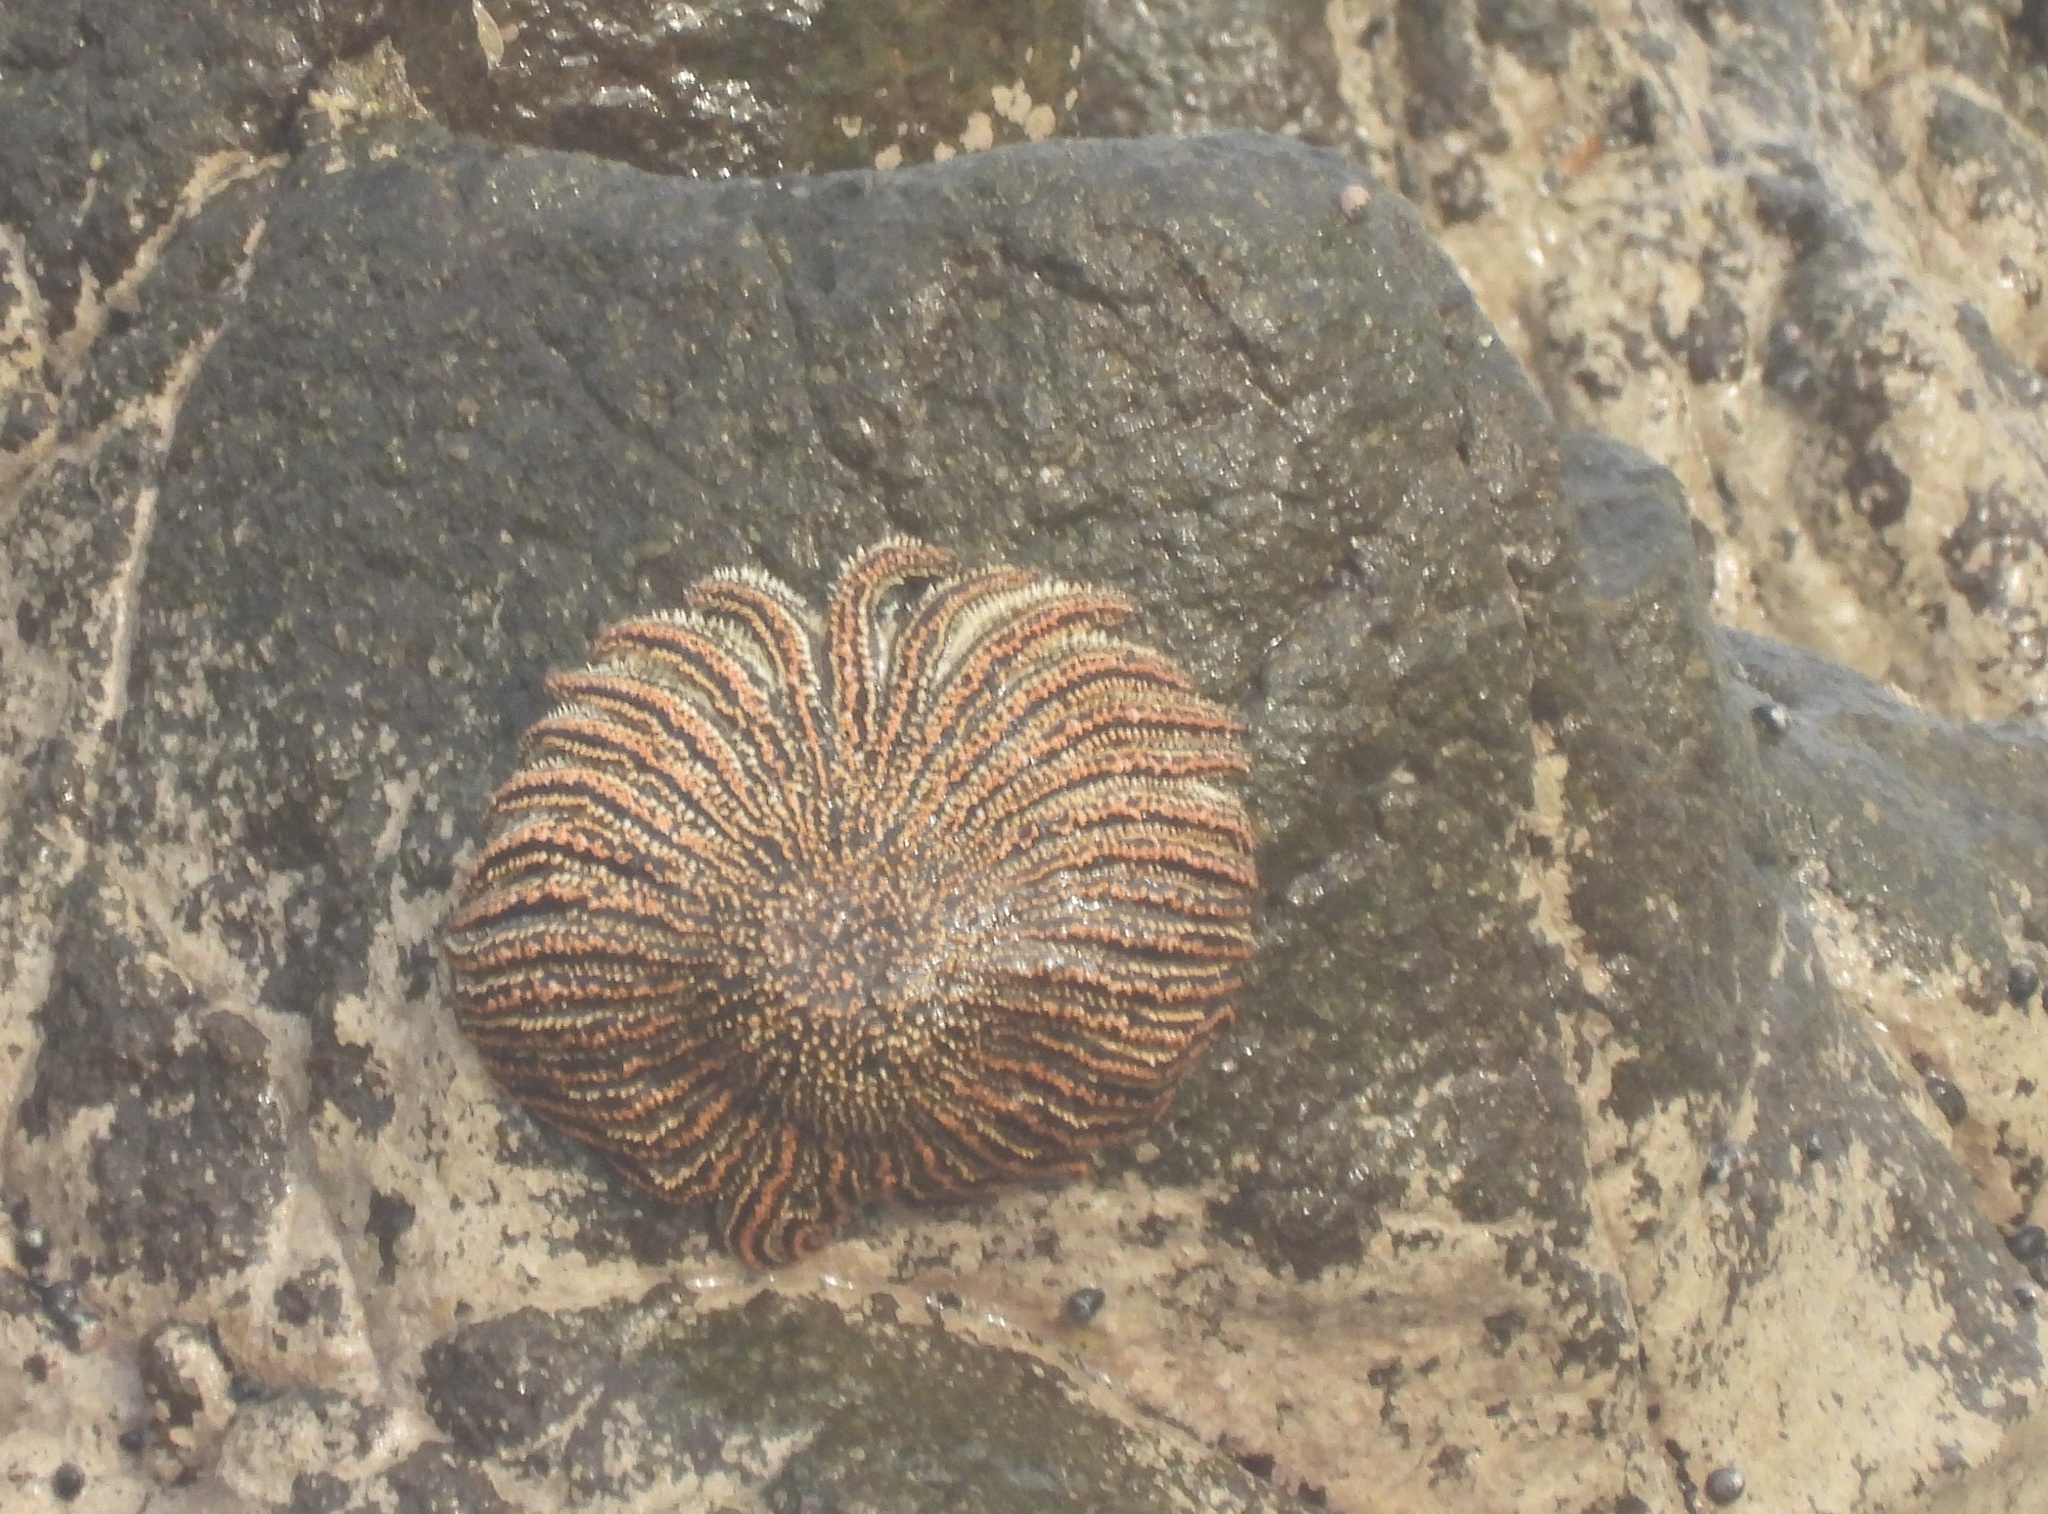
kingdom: Animalia
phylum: Echinodermata
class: Asteroidea
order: Forcipulatida
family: Heliasteridae
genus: Heliaster
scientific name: Heliaster helianthus
